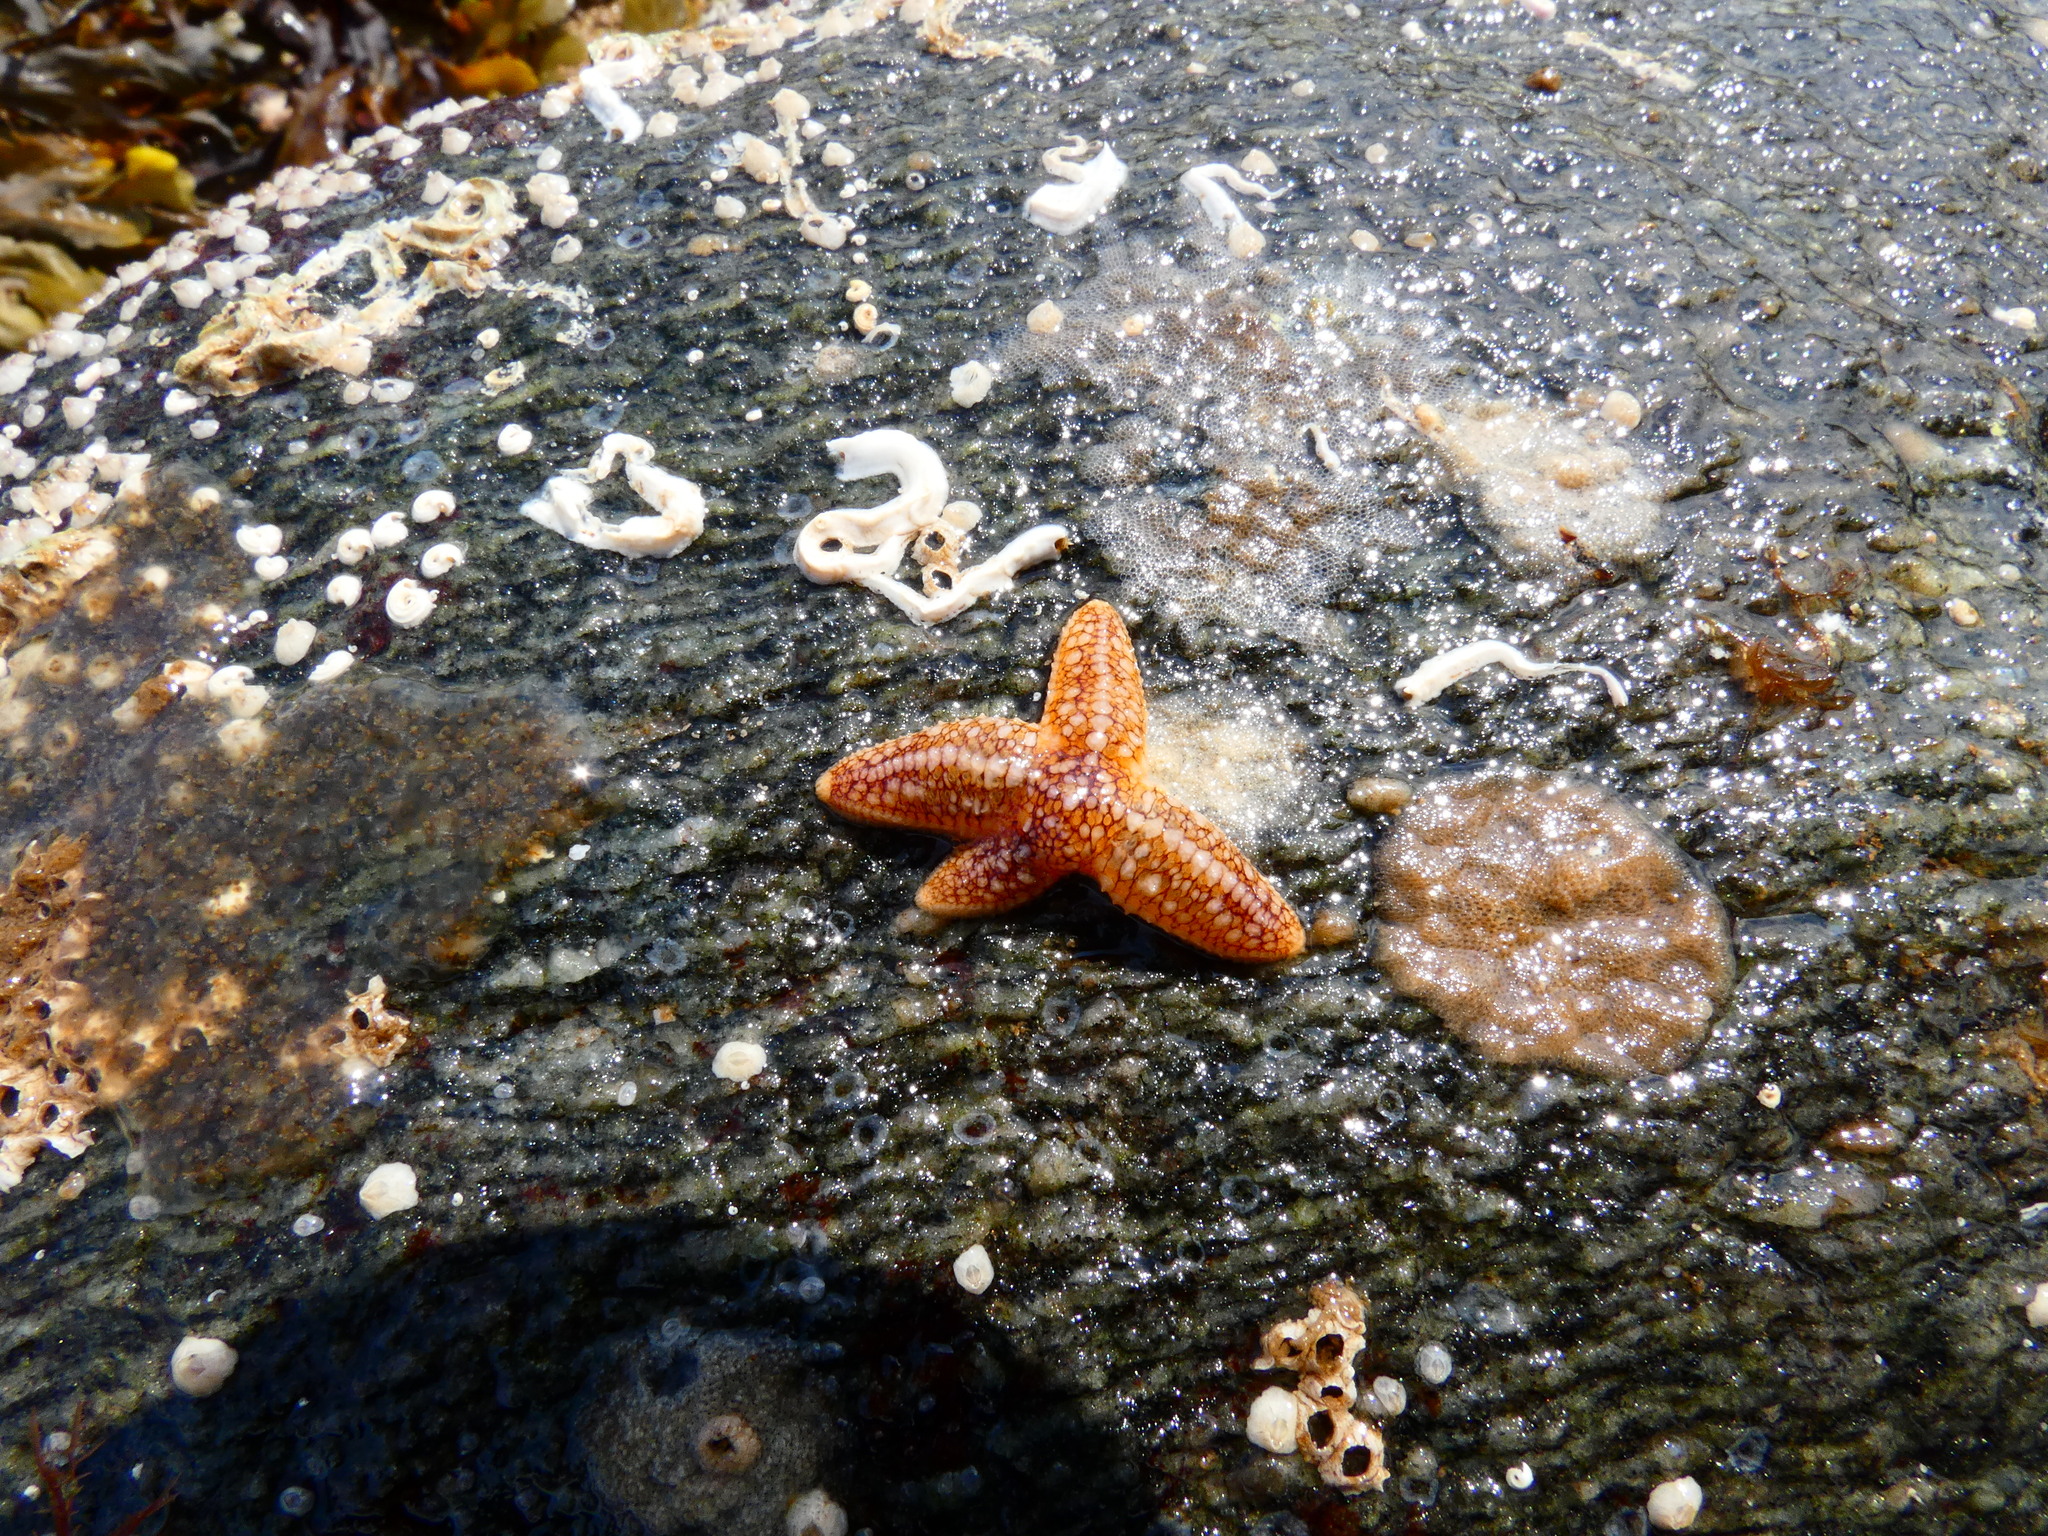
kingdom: Animalia
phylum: Echinodermata
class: Asteroidea
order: Forcipulatida
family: Asteriidae
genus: Asterias
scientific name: Asterias rubens
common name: Common starfish
